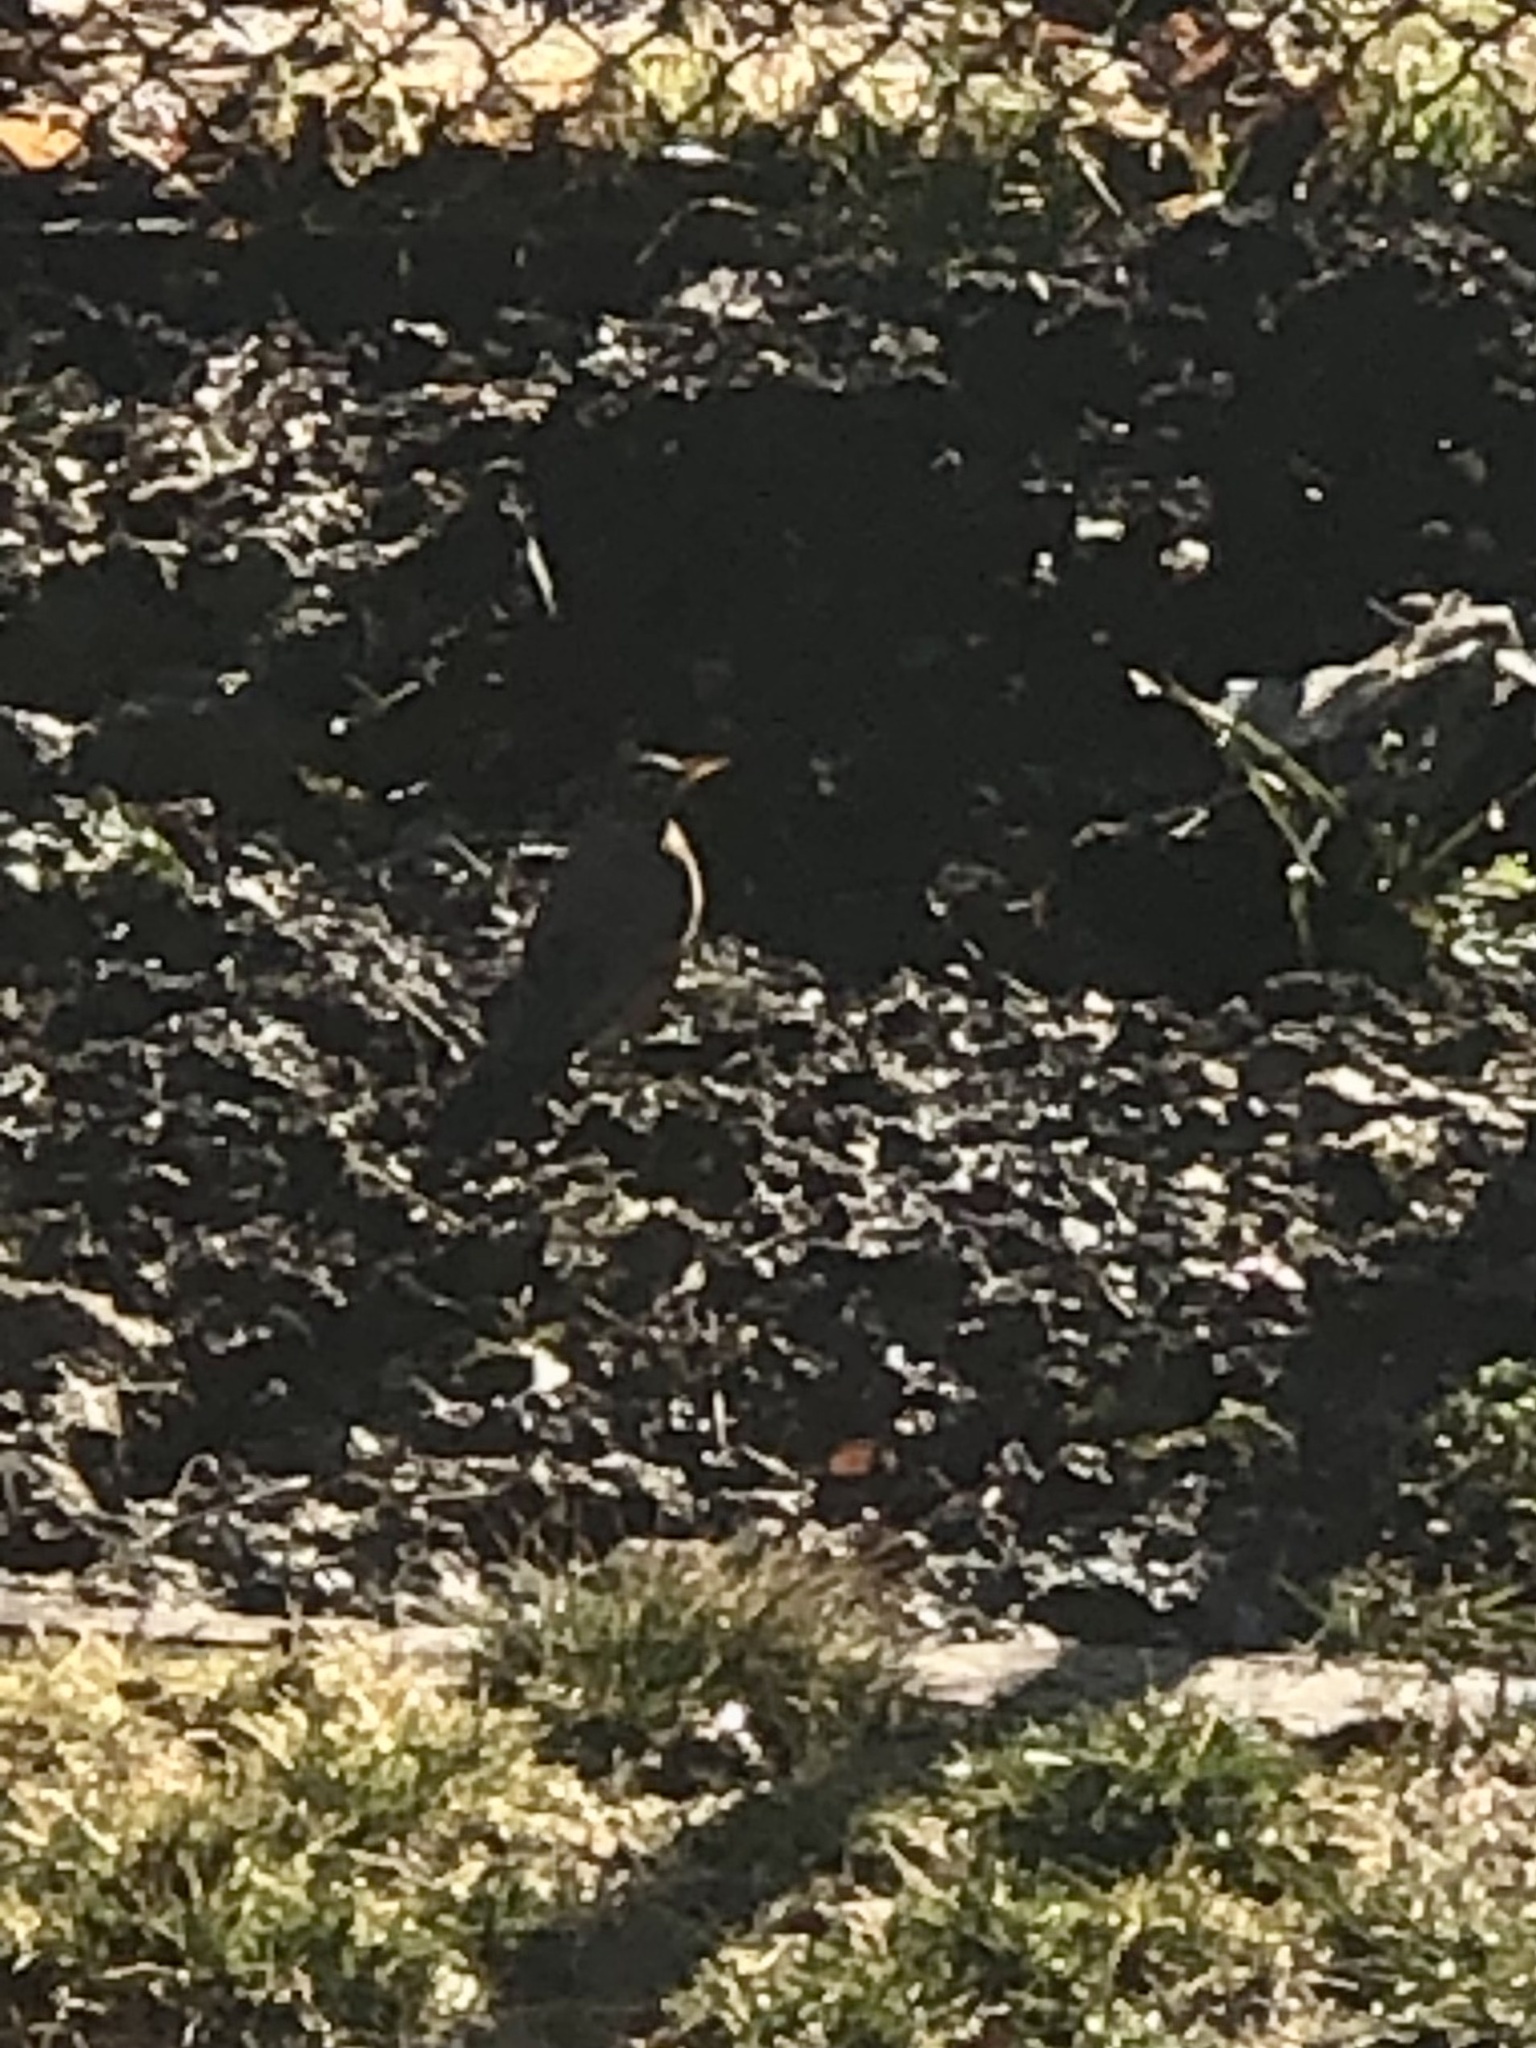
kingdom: Animalia
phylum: Chordata
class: Aves
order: Passeriformes
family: Turdidae
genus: Turdus
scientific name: Turdus migratorius
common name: American robin
